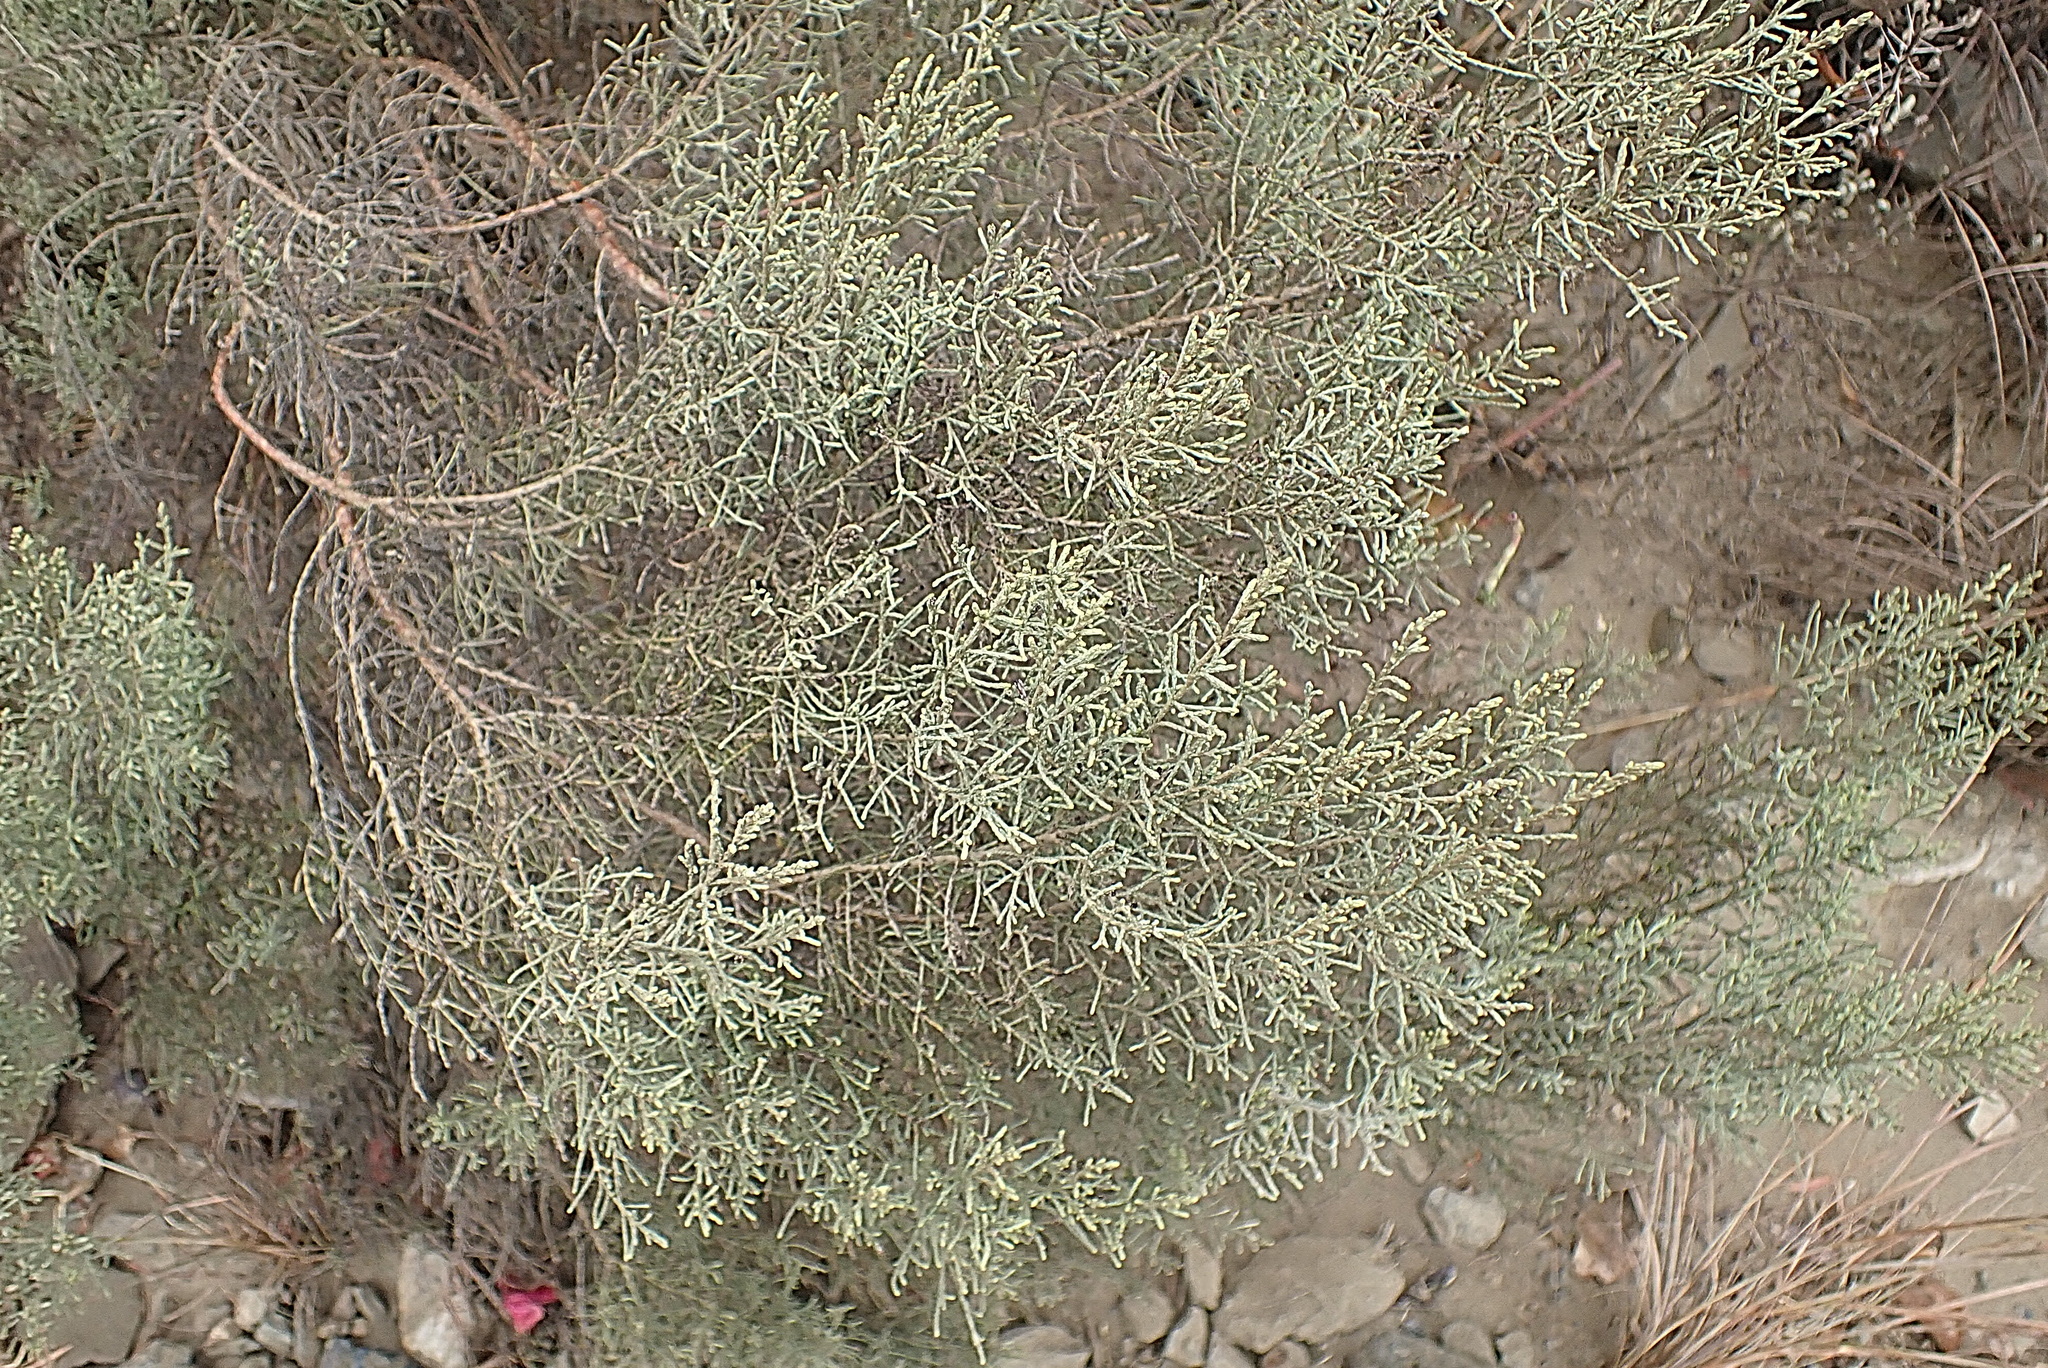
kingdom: Plantae
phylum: Tracheophyta
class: Magnoliopsida
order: Asterales
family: Asteraceae
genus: Dicerothamnus
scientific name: Dicerothamnus rhinocerotis
